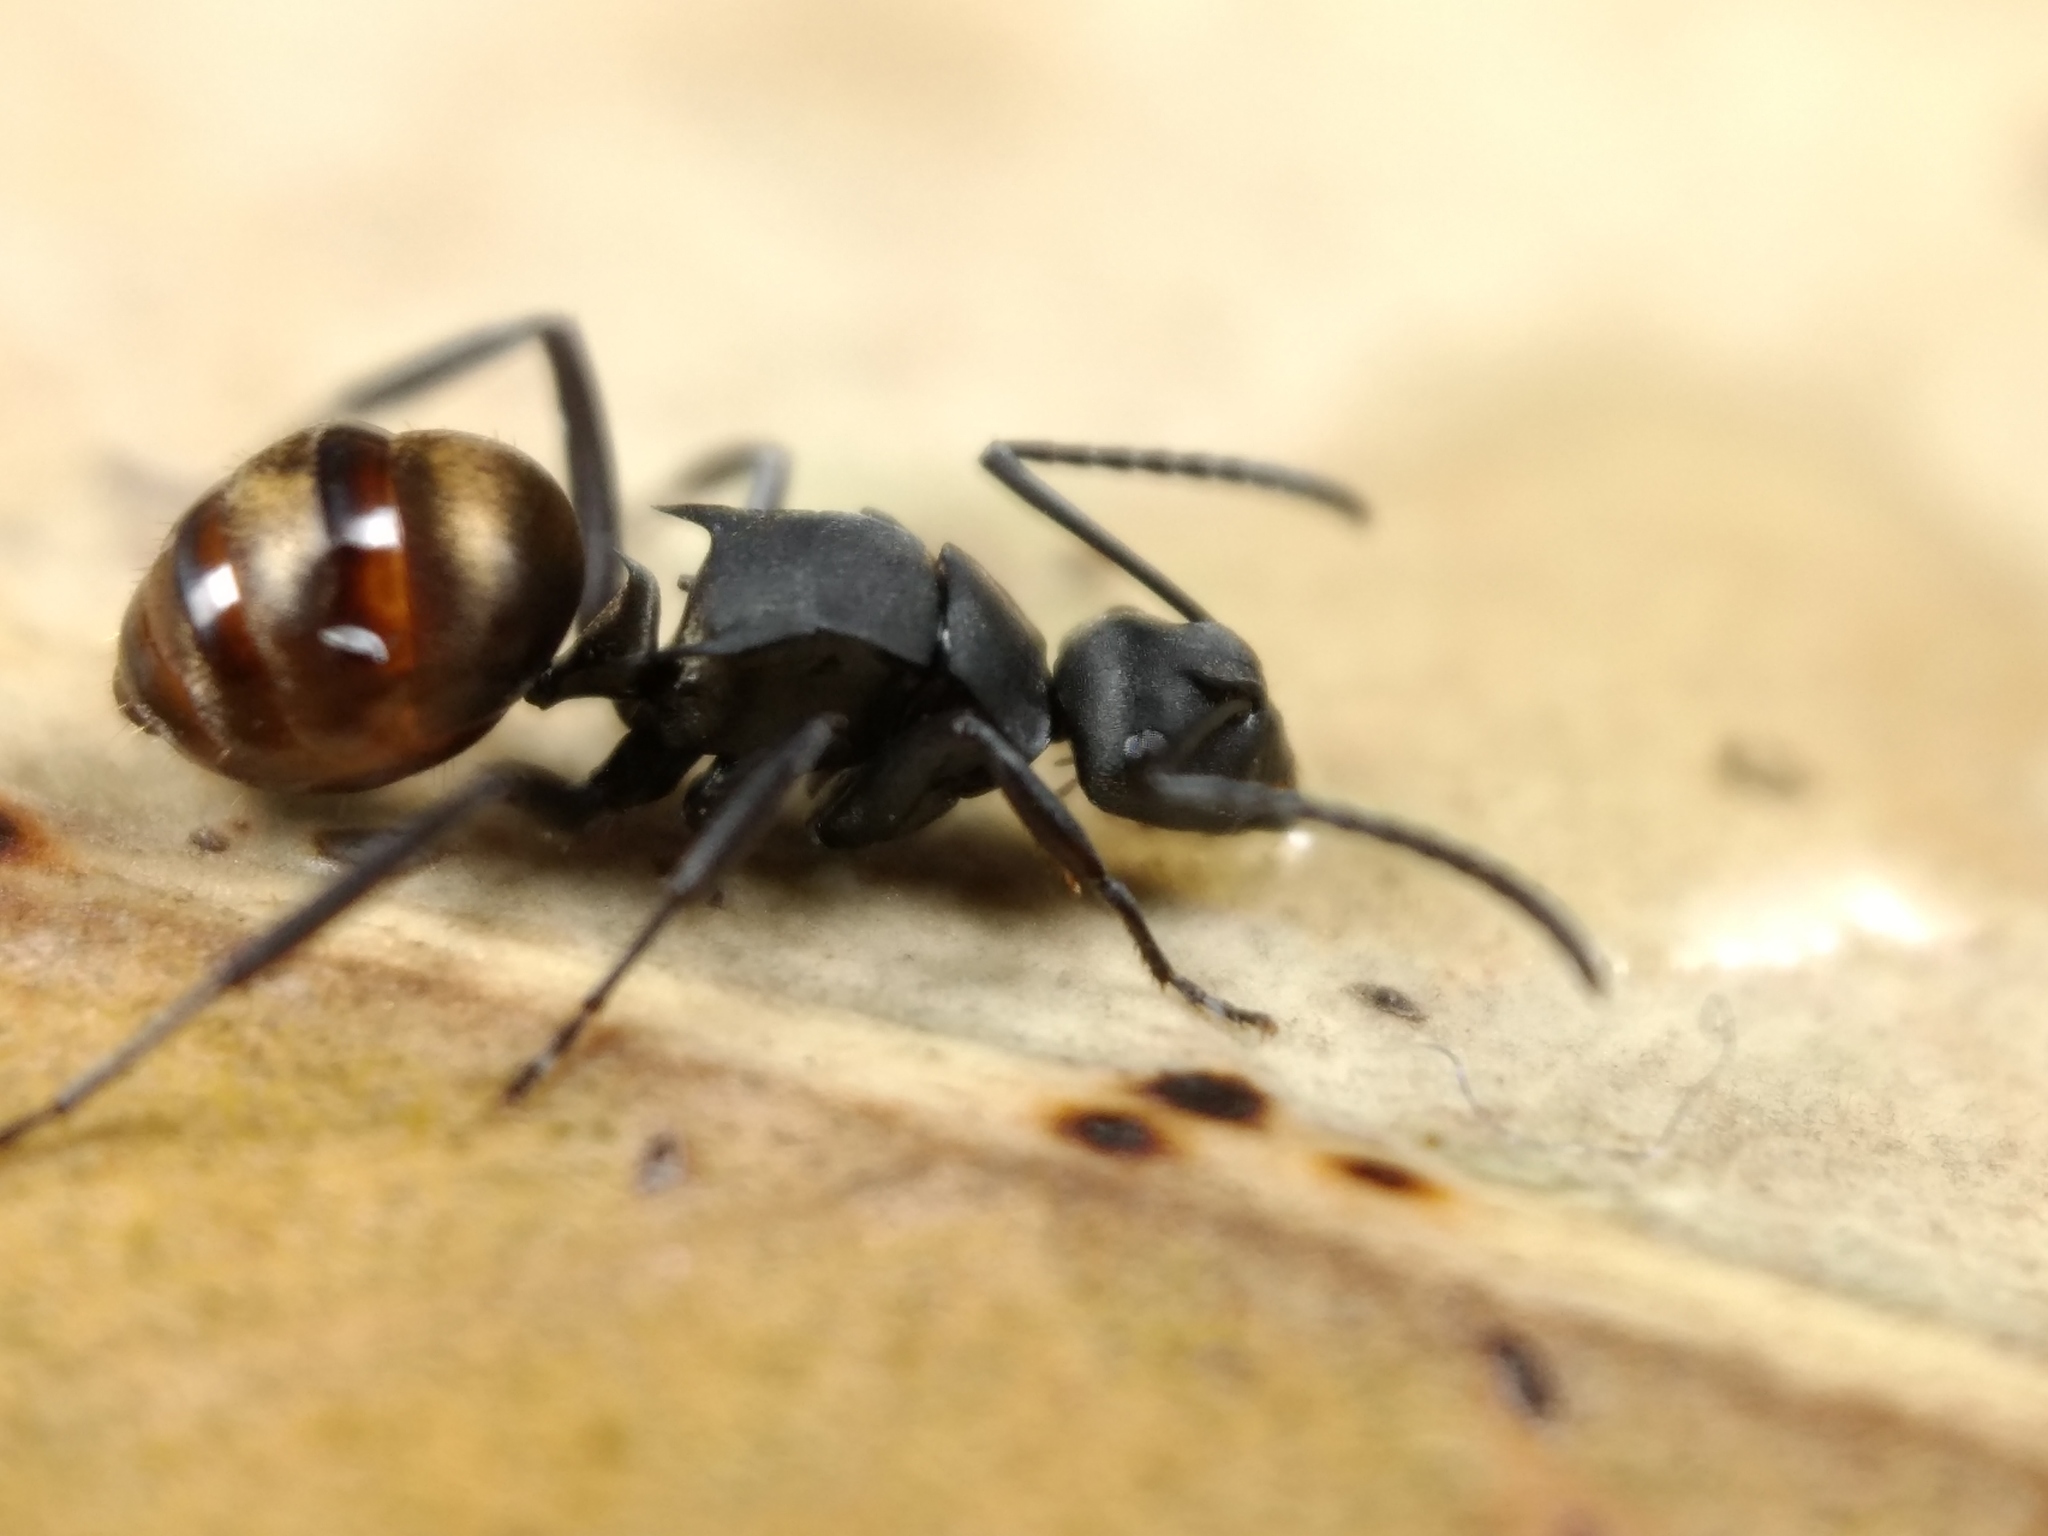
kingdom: Animalia
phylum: Arthropoda
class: Insecta
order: Hymenoptera
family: Formicidae
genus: Polyrhachis
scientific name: Polyrhachis tubifera
